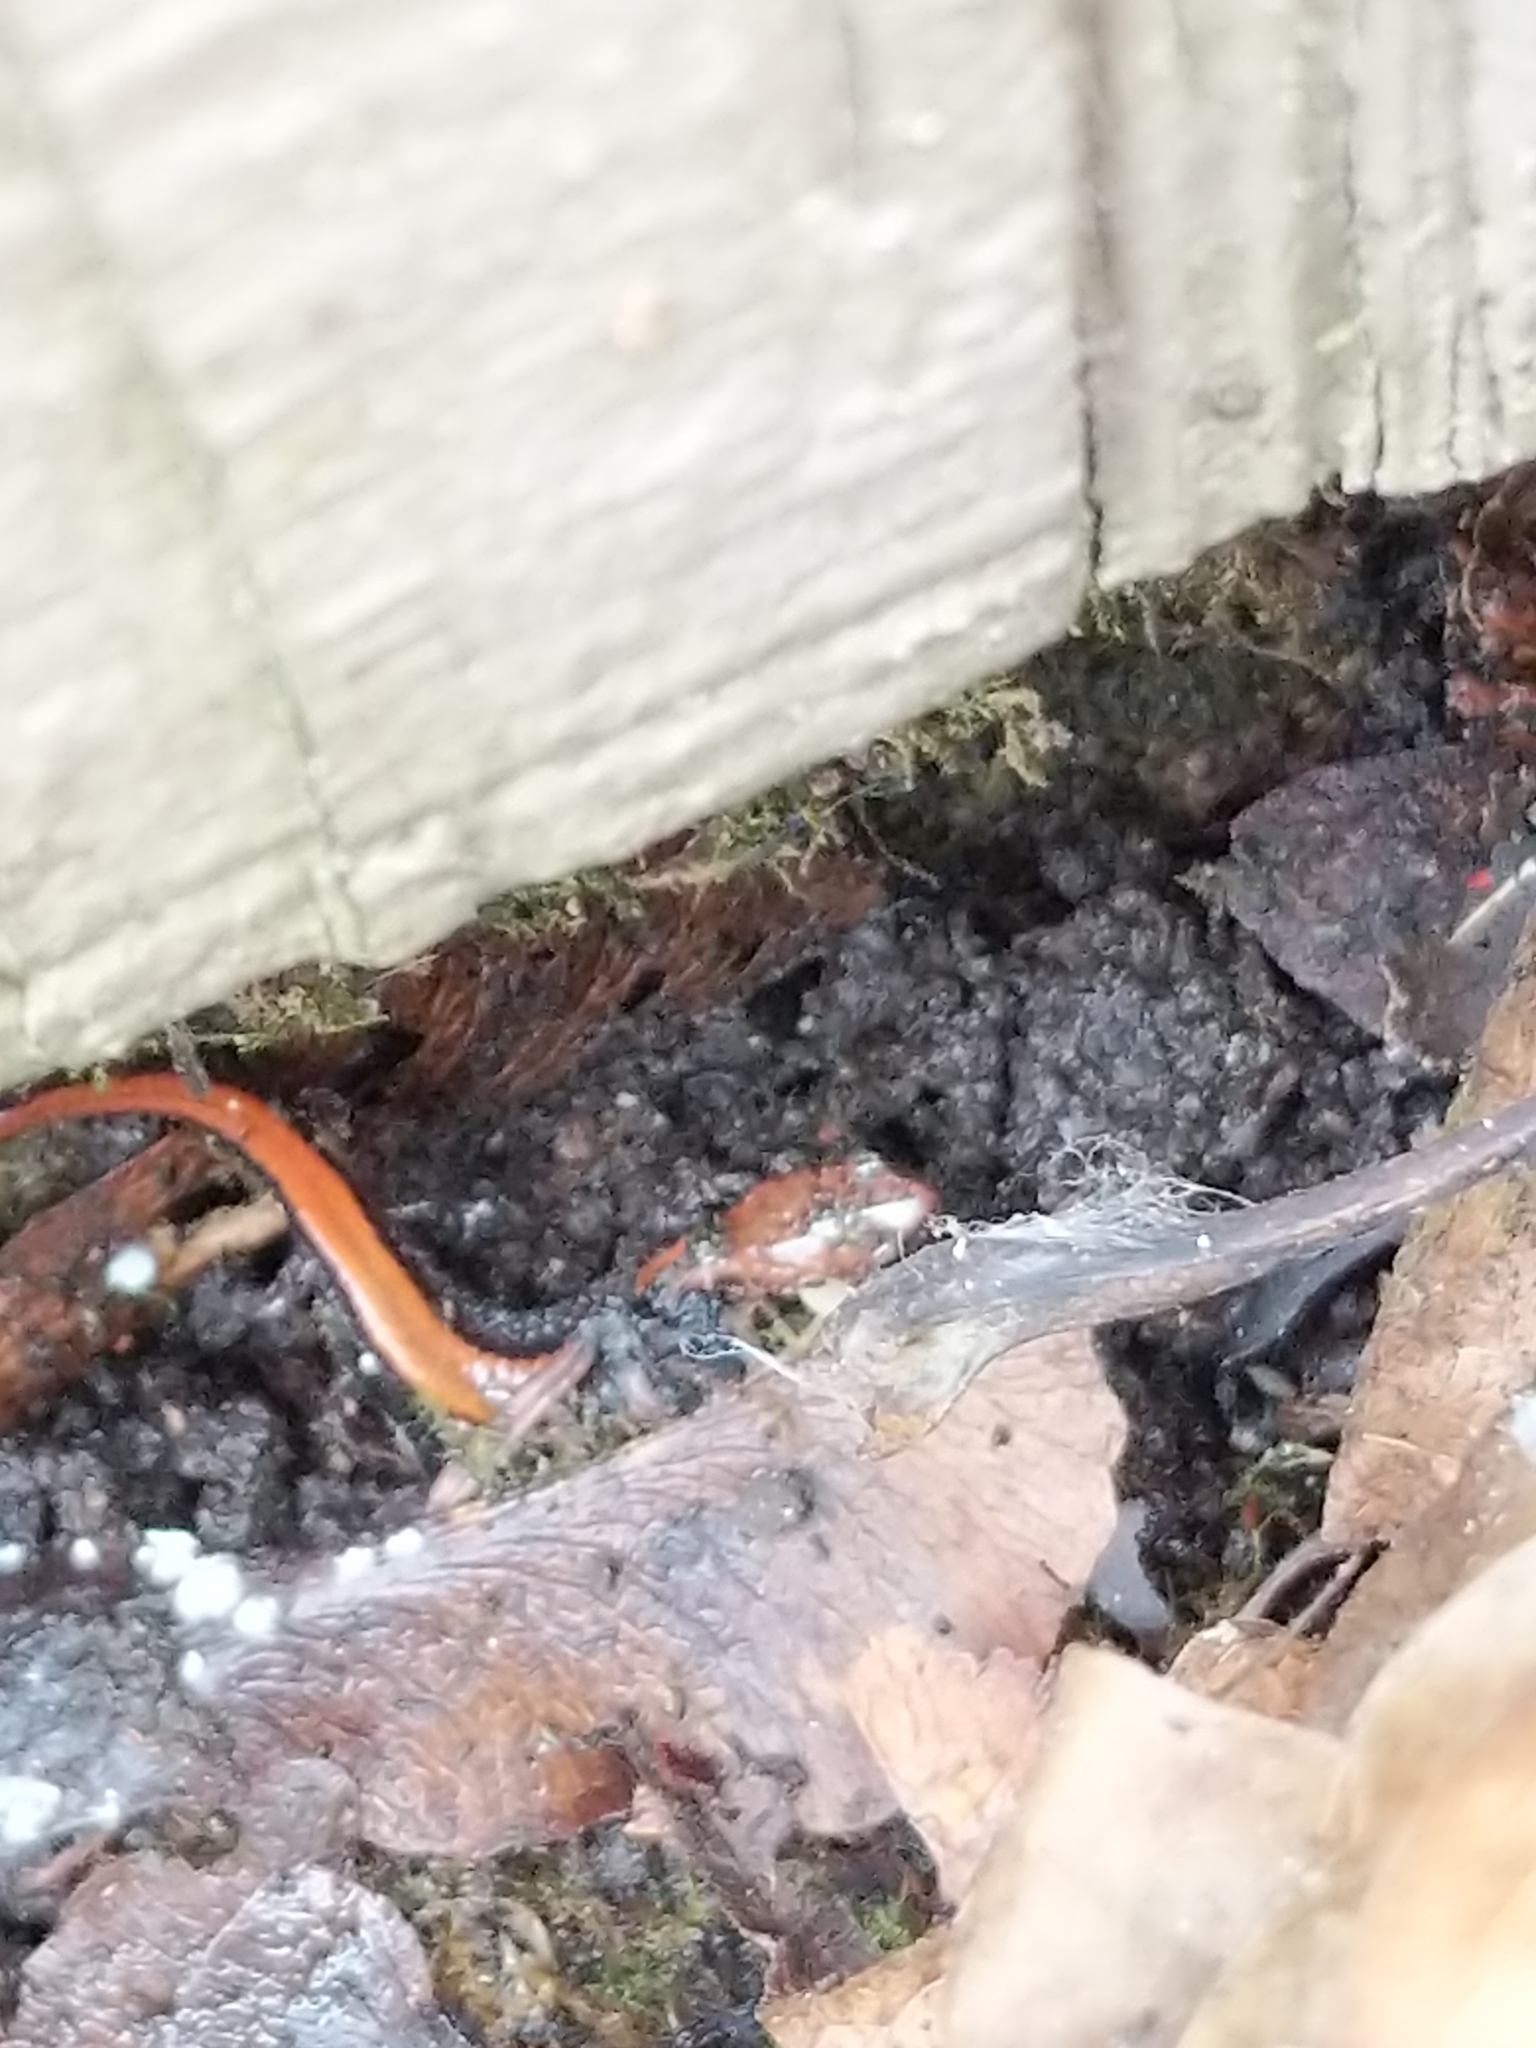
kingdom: Animalia
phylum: Chordata
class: Amphibia
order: Caudata
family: Plethodontidae
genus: Plethodon
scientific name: Plethodon cinereus
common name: Redback salamander
